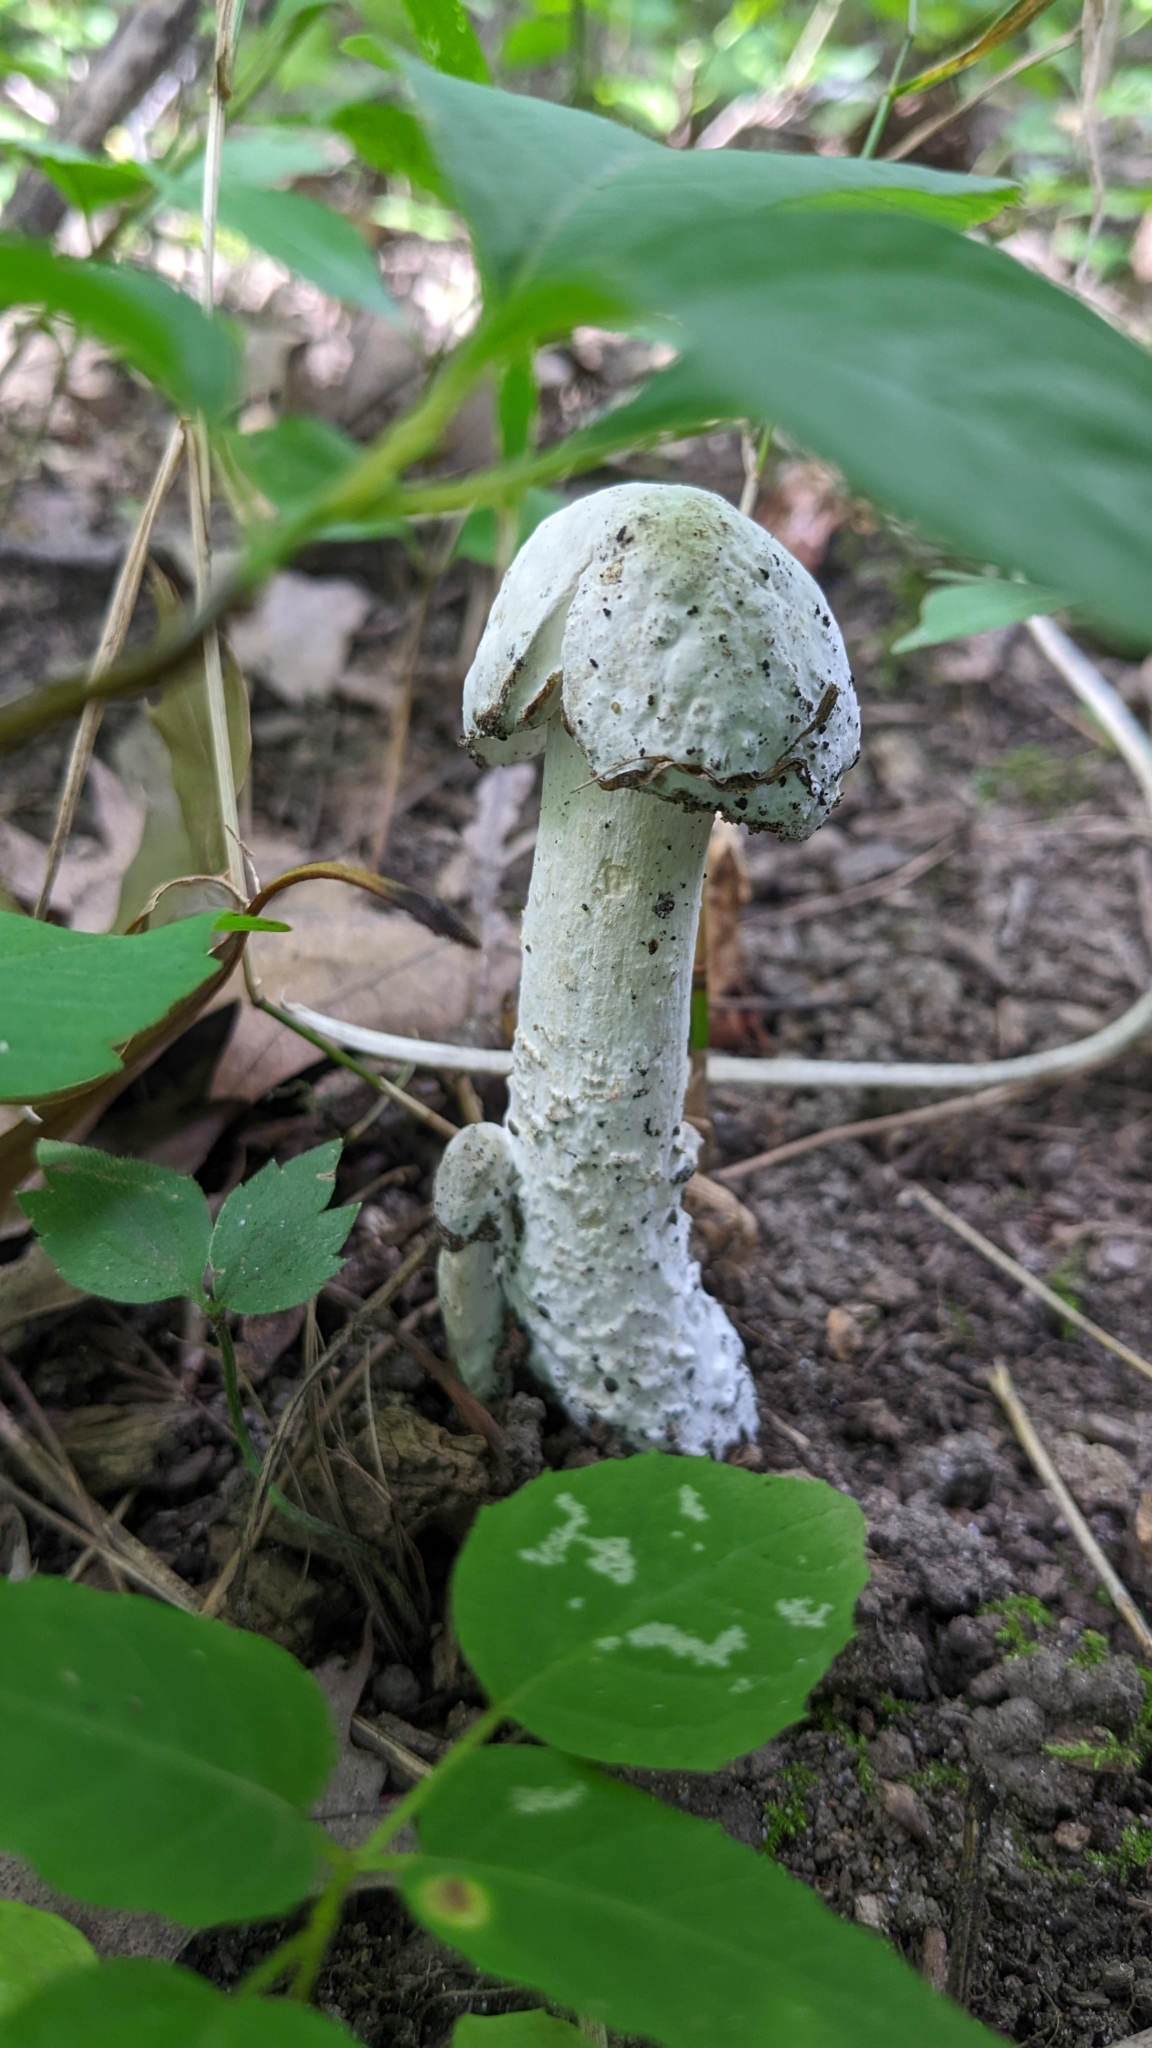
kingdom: Fungi
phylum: Ascomycota
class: Sordariomycetes
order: Hypocreales
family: Hypocreaceae
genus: Hypomyces
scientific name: Hypomyces hyalinus
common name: Amanita mold
